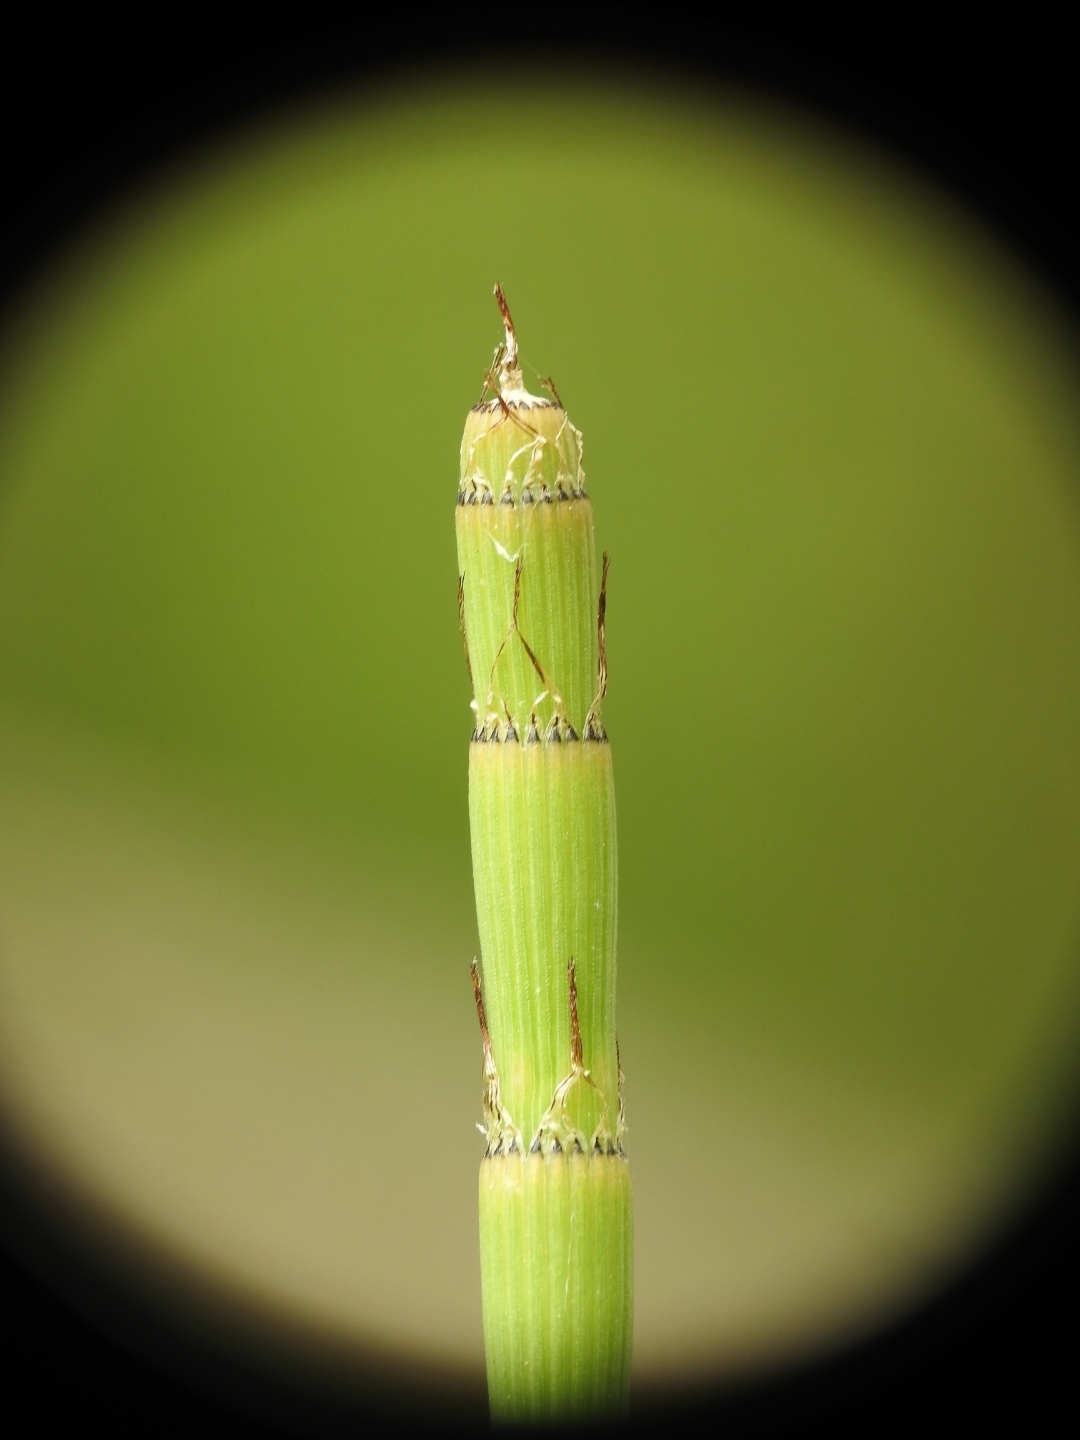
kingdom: Plantae
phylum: Tracheophyta
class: Polypodiopsida
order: Equisetales
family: Equisetaceae
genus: Equisetum
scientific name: Equisetum ramosissimum
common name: Branched horsetail
